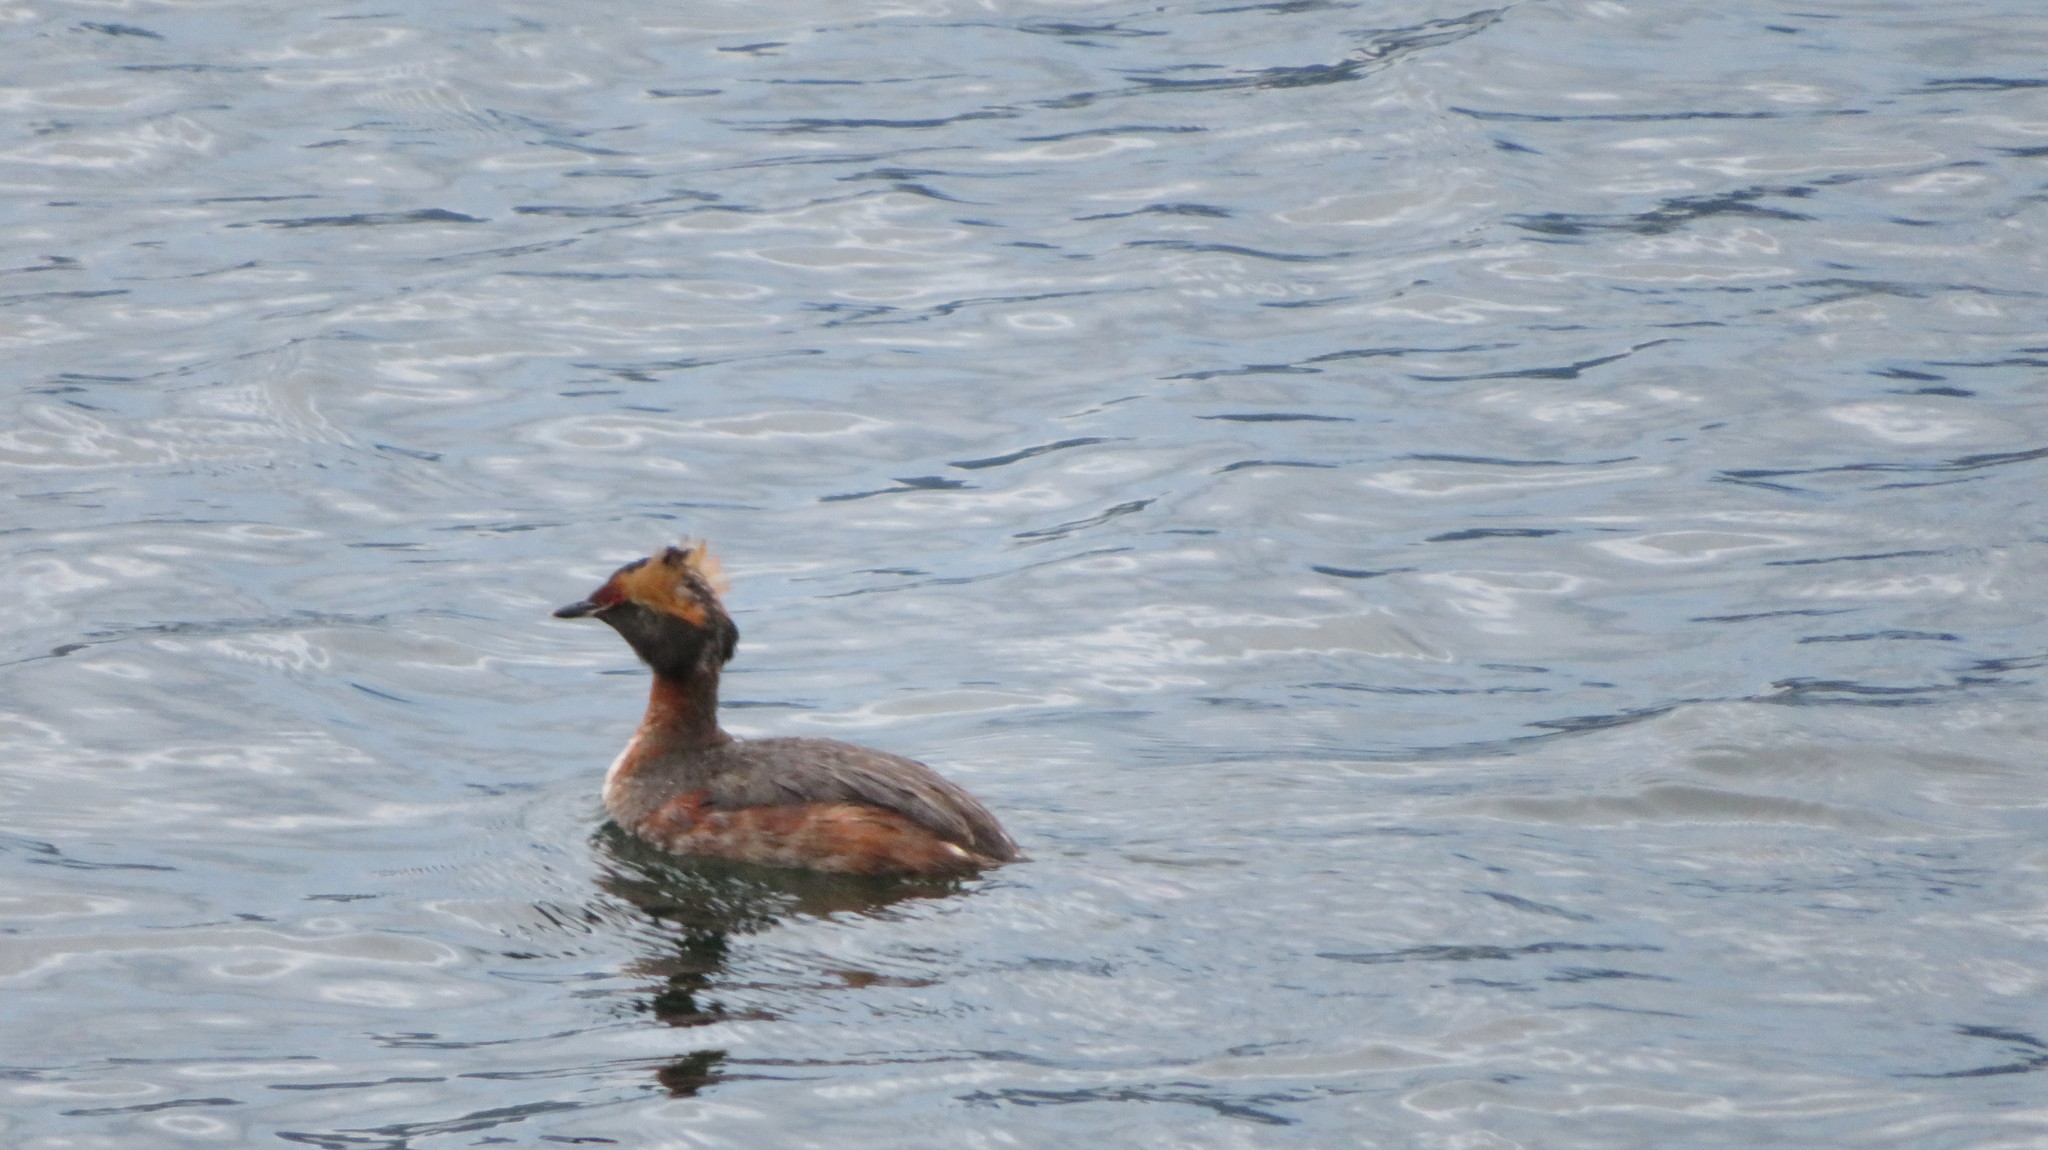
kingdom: Animalia
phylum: Chordata
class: Aves
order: Podicipediformes
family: Podicipedidae
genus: Podiceps
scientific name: Podiceps auritus
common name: Horned grebe
